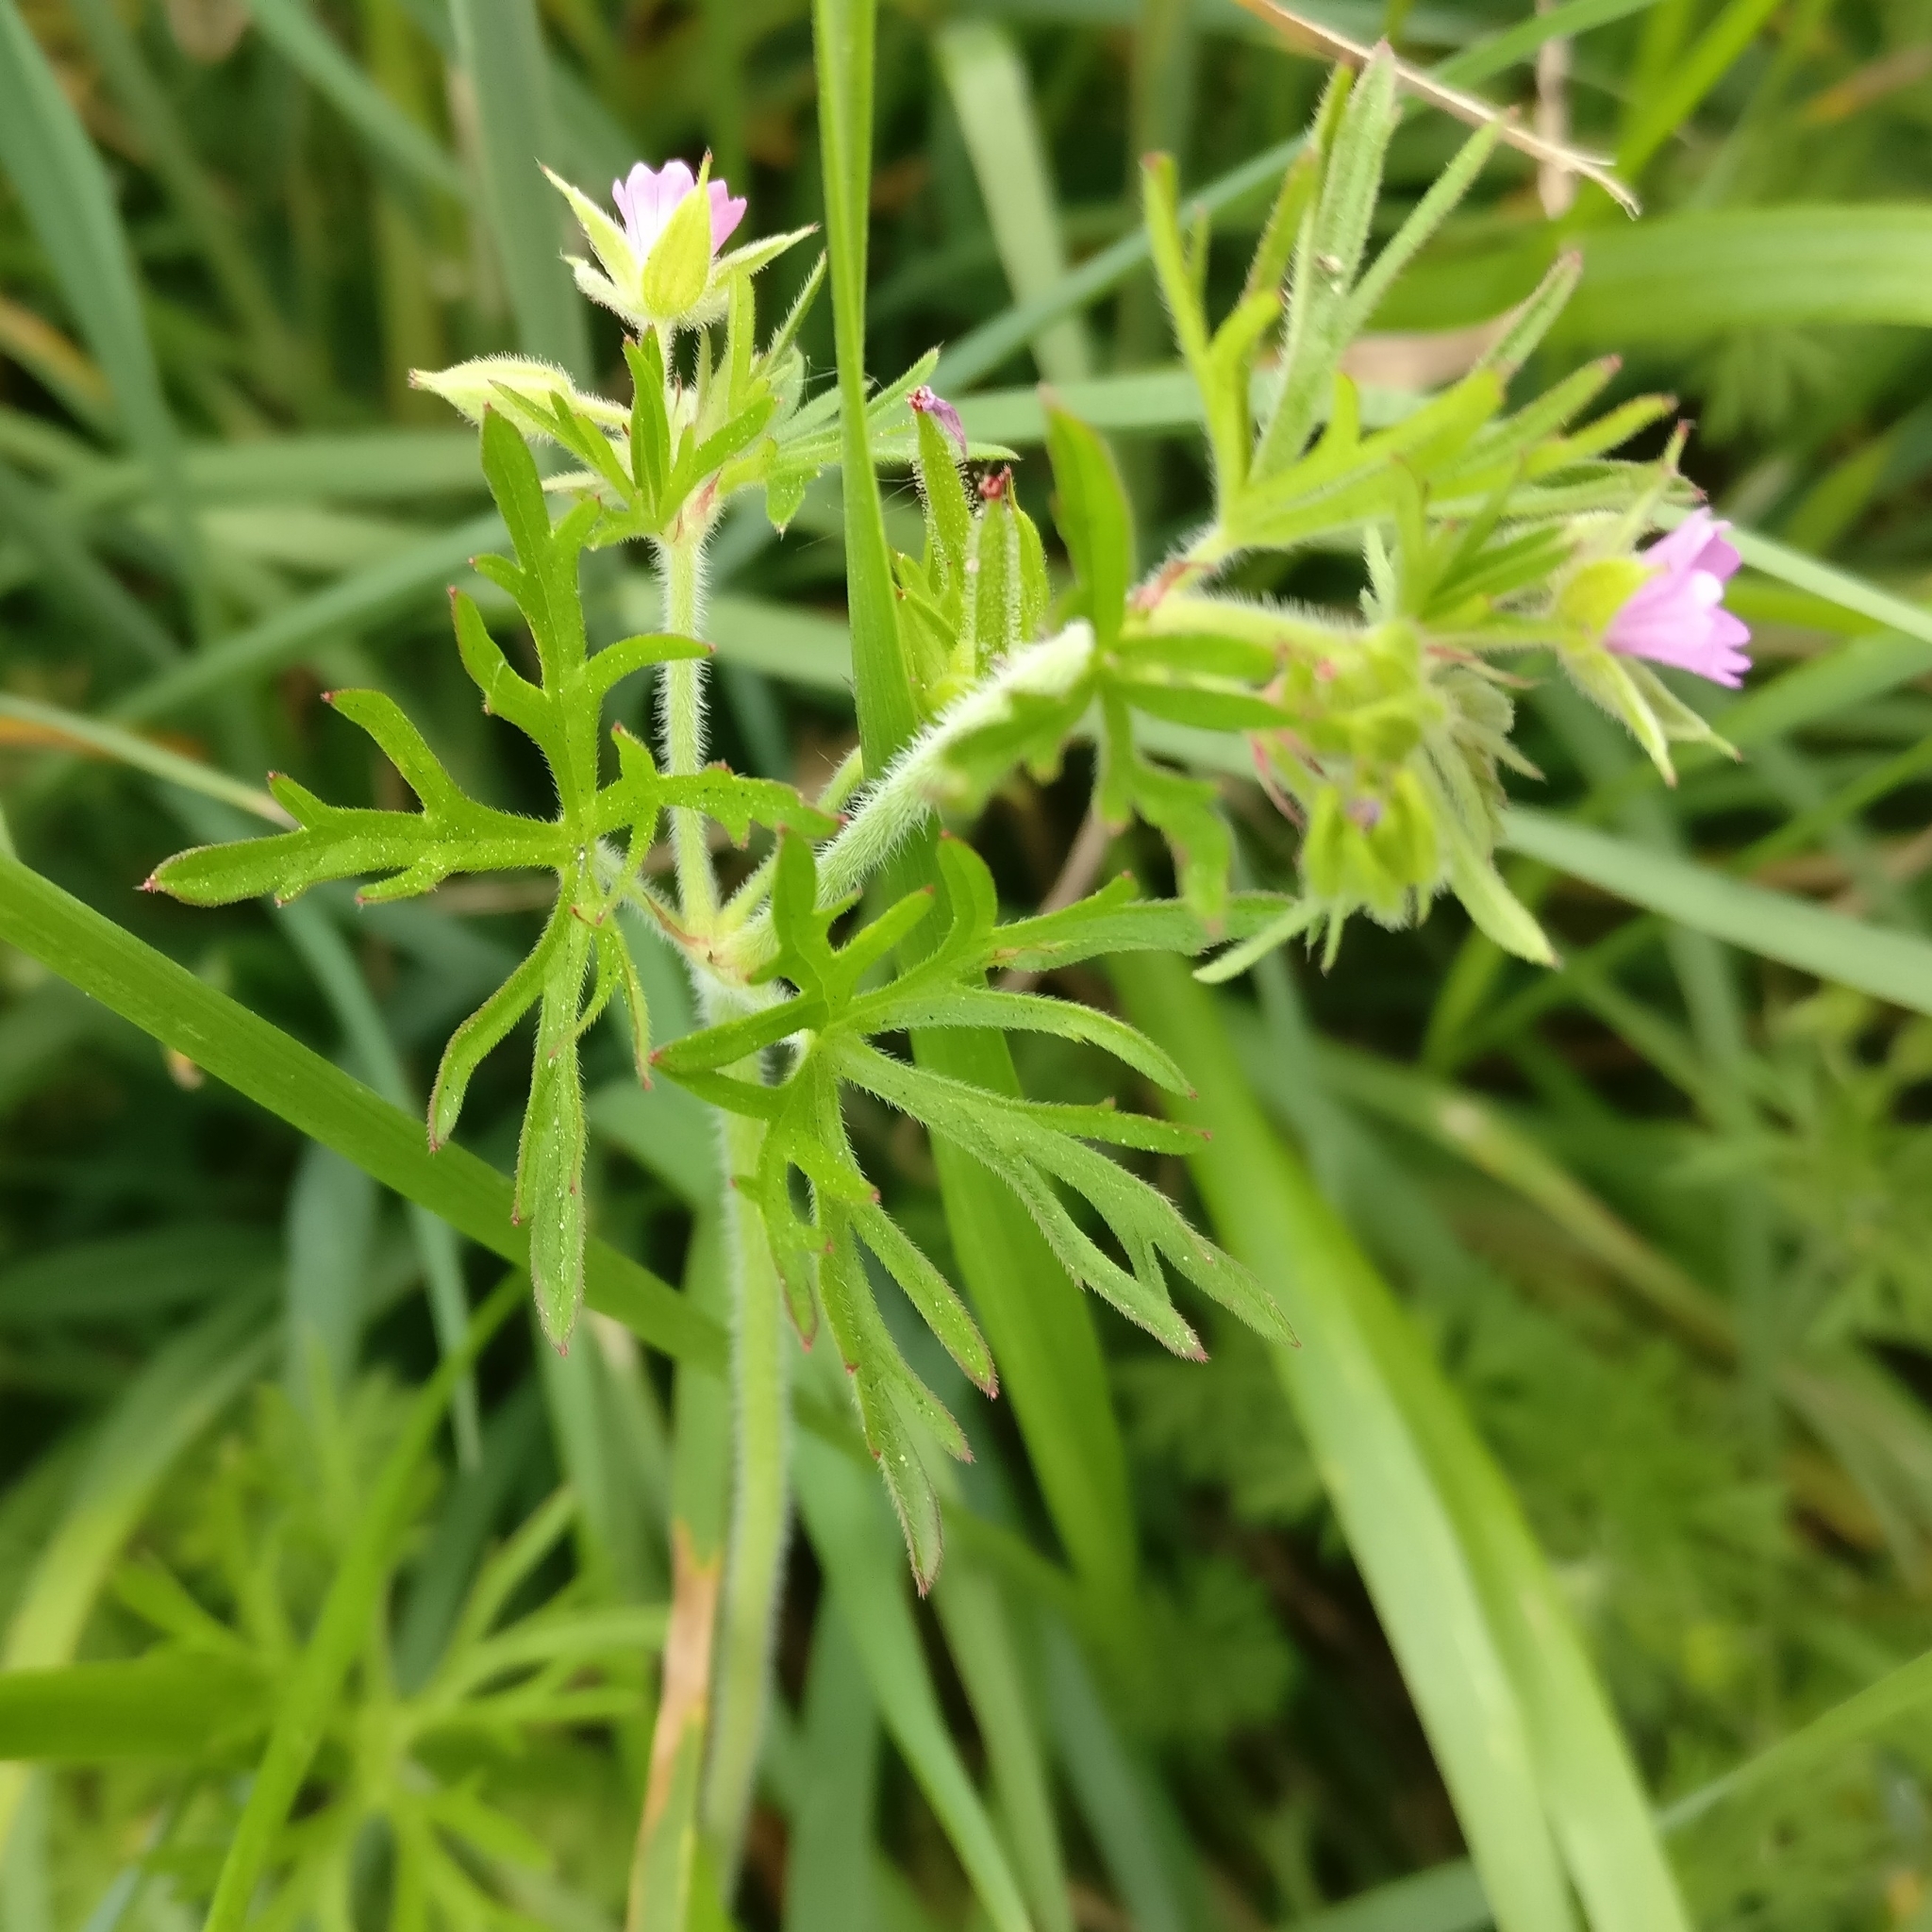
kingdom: Plantae
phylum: Tracheophyta
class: Magnoliopsida
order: Geraniales
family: Geraniaceae
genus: Geranium
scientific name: Geranium dissectum
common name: Cut-leaved crane's-bill
